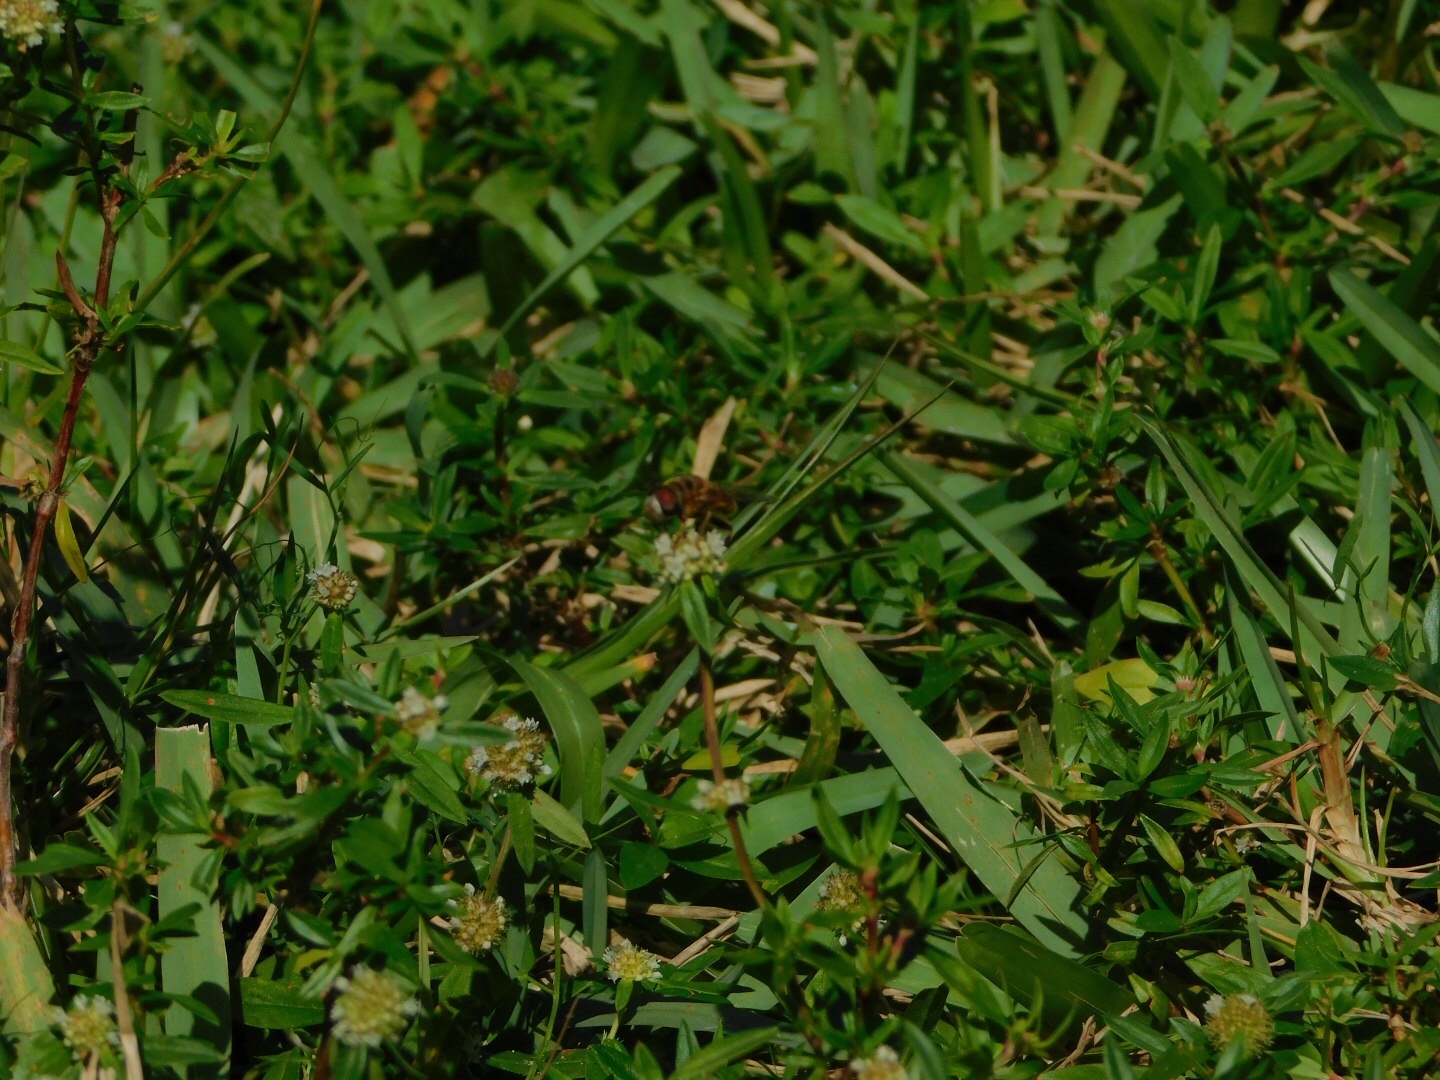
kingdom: Animalia
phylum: Arthropoda
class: Insecta
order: Diptera
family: Syrphidae
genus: Palpada
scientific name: Palpada vinetorum
